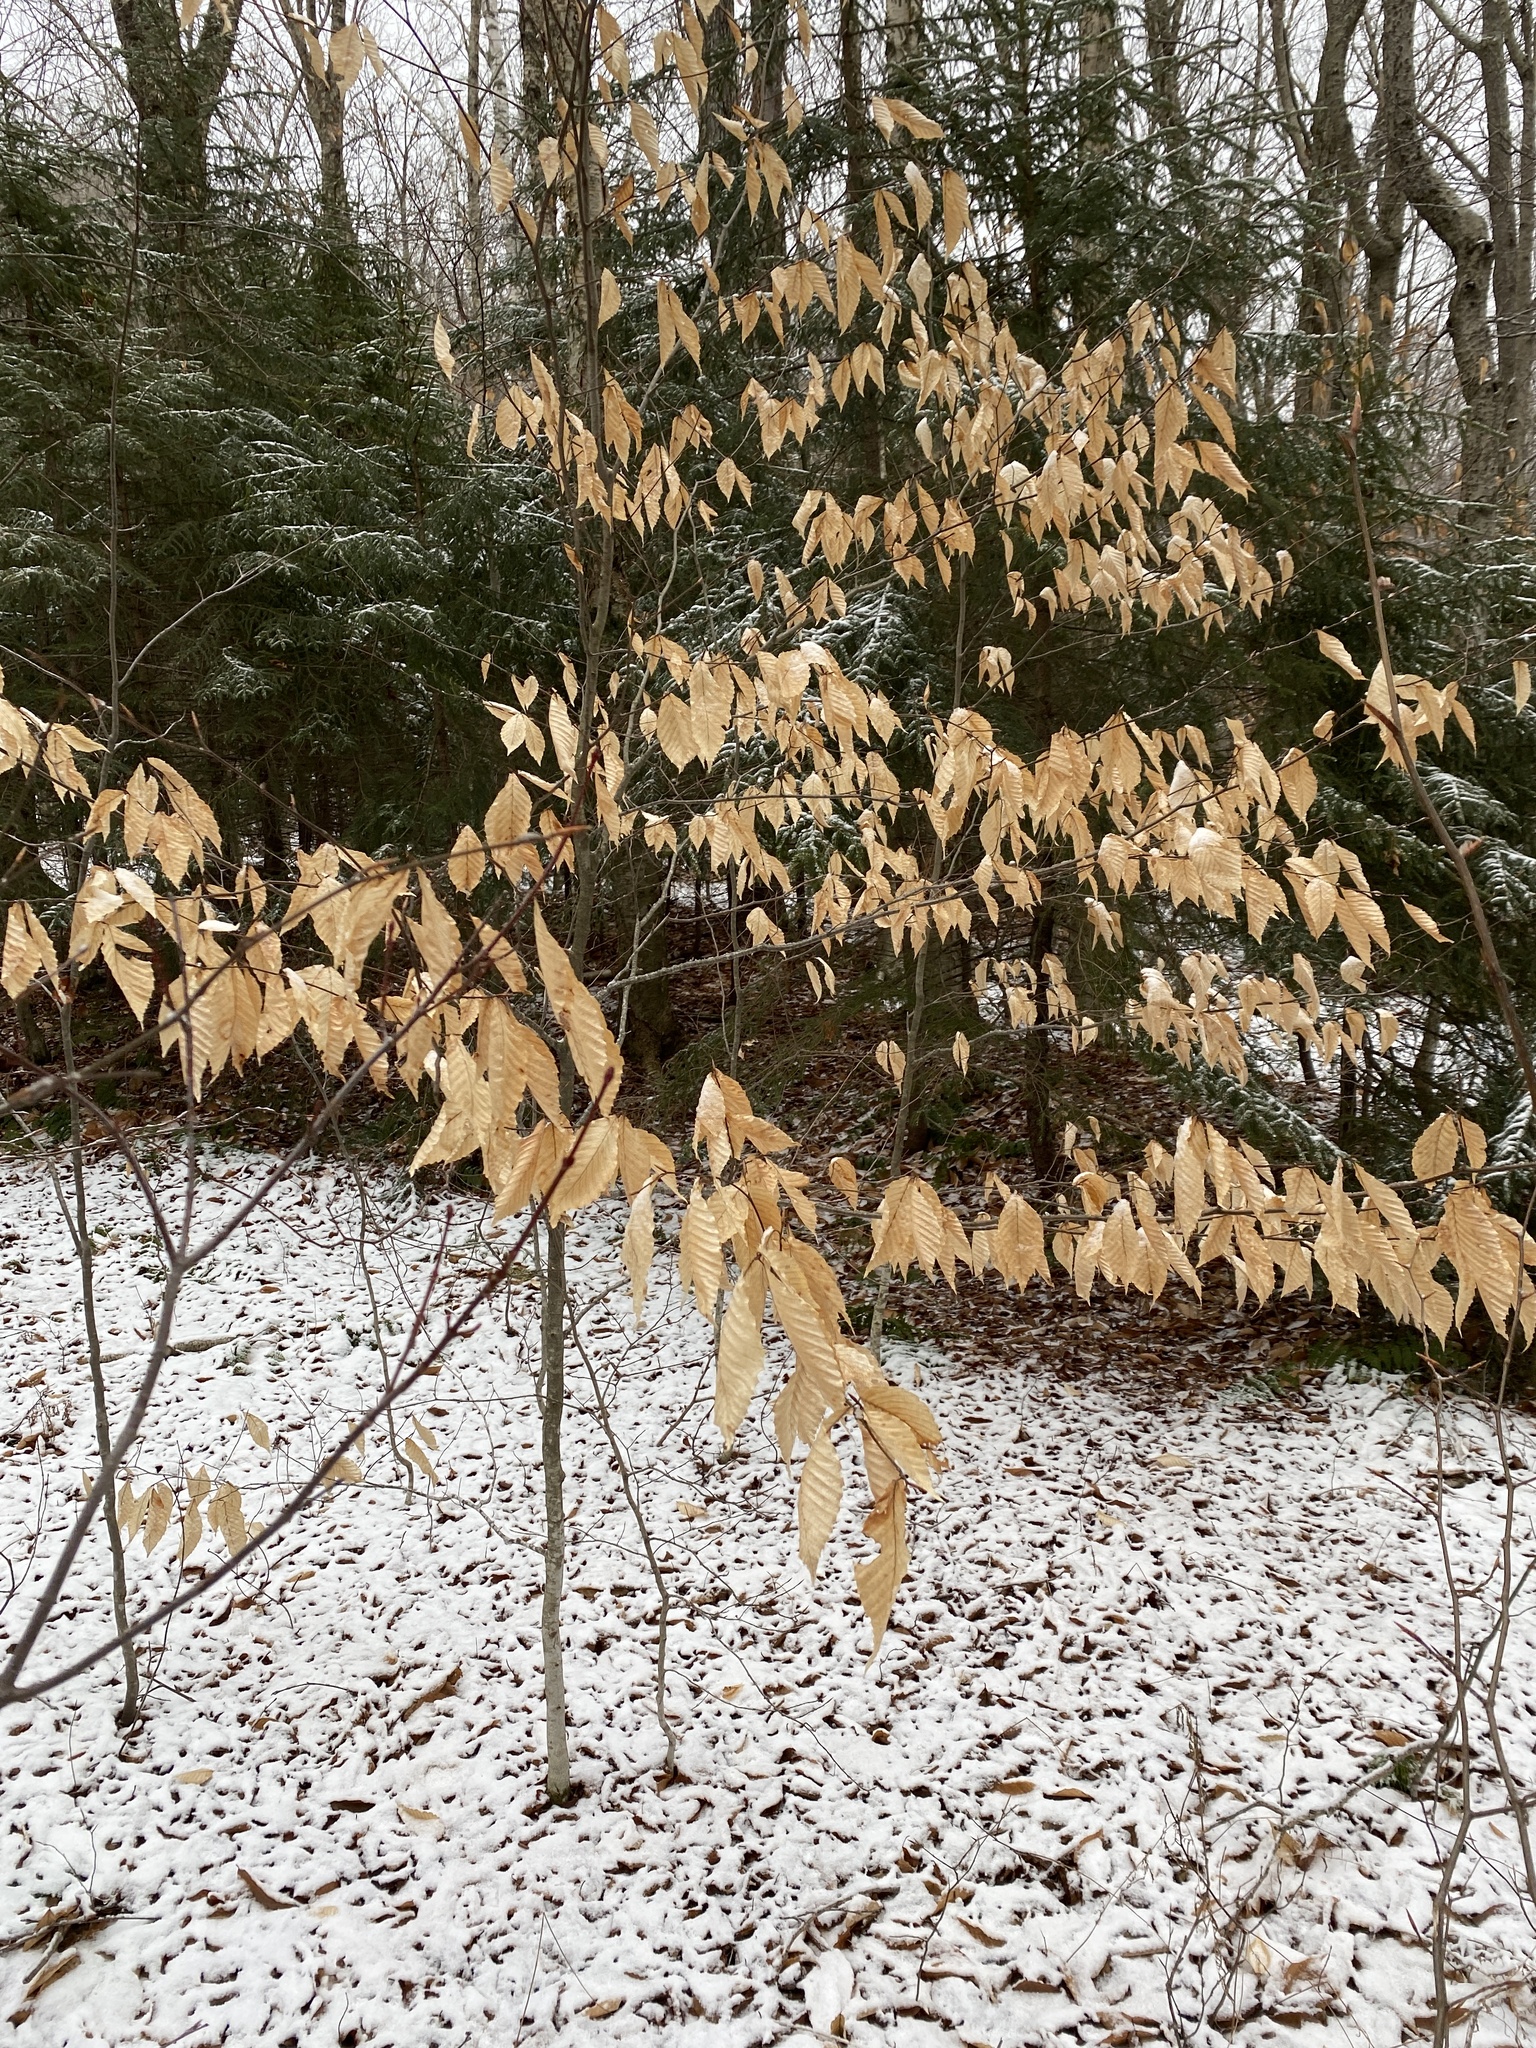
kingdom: Plantae
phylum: Tracheophyta
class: Magnoliopsida
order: Fagales
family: Fagaceae
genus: Fagus
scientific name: Fagus grandifolia
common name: American beech
